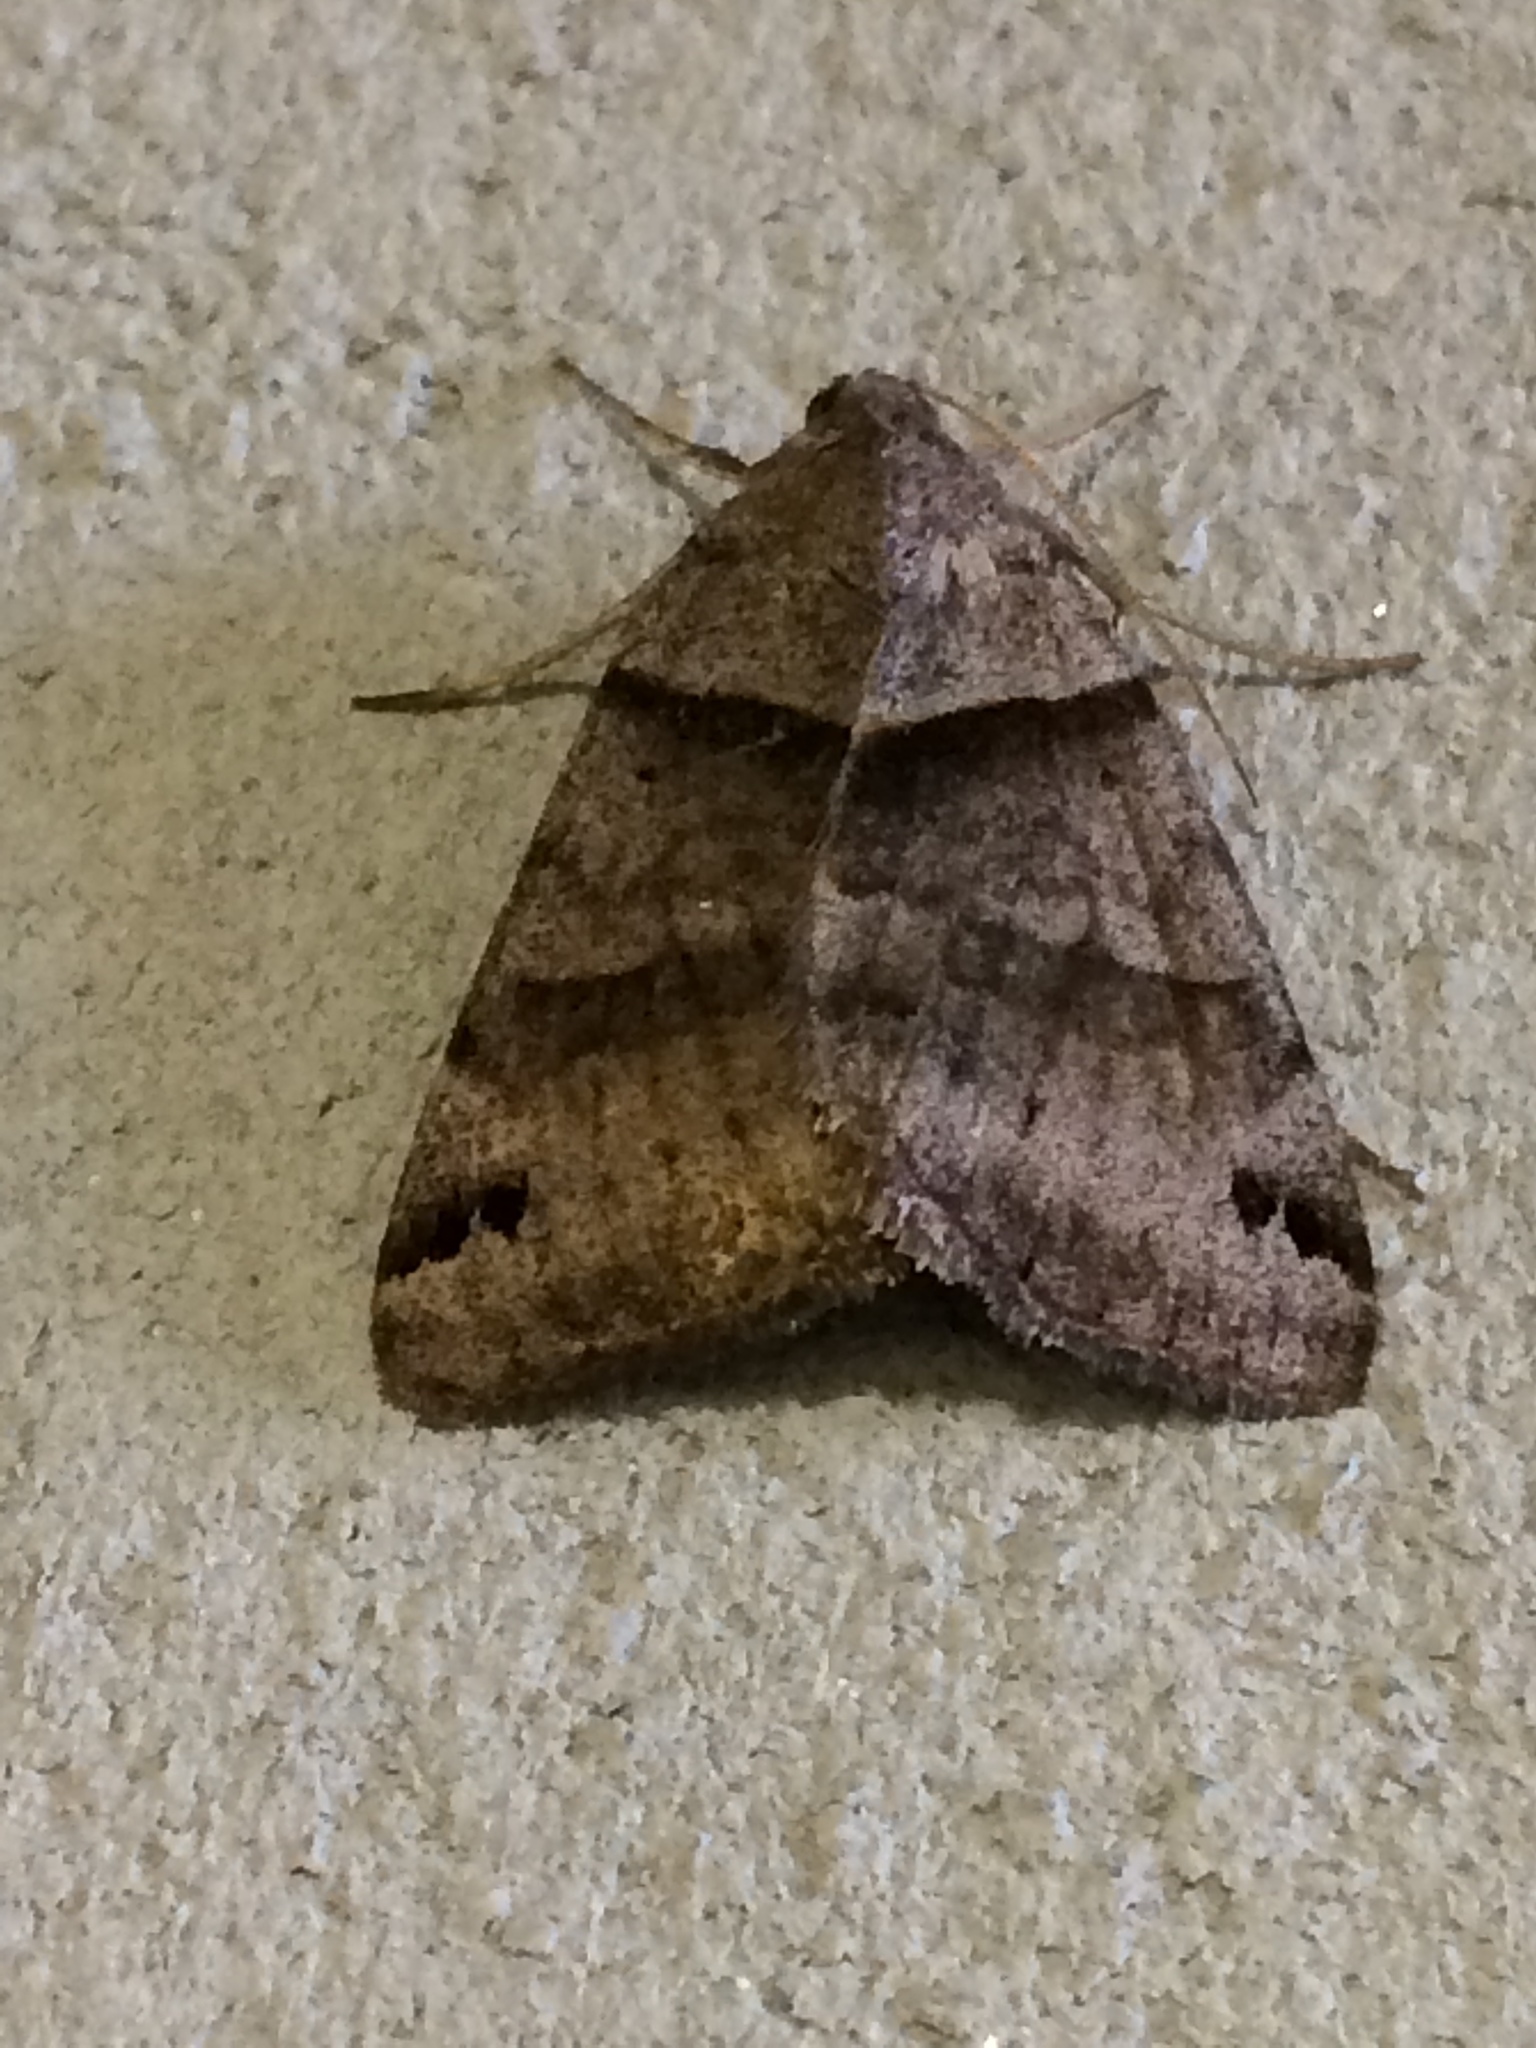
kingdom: Animalia
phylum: Arthropoda
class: Insecta
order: Lepidoptera
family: Erebidae
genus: Caenurgina
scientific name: Caenurgina
